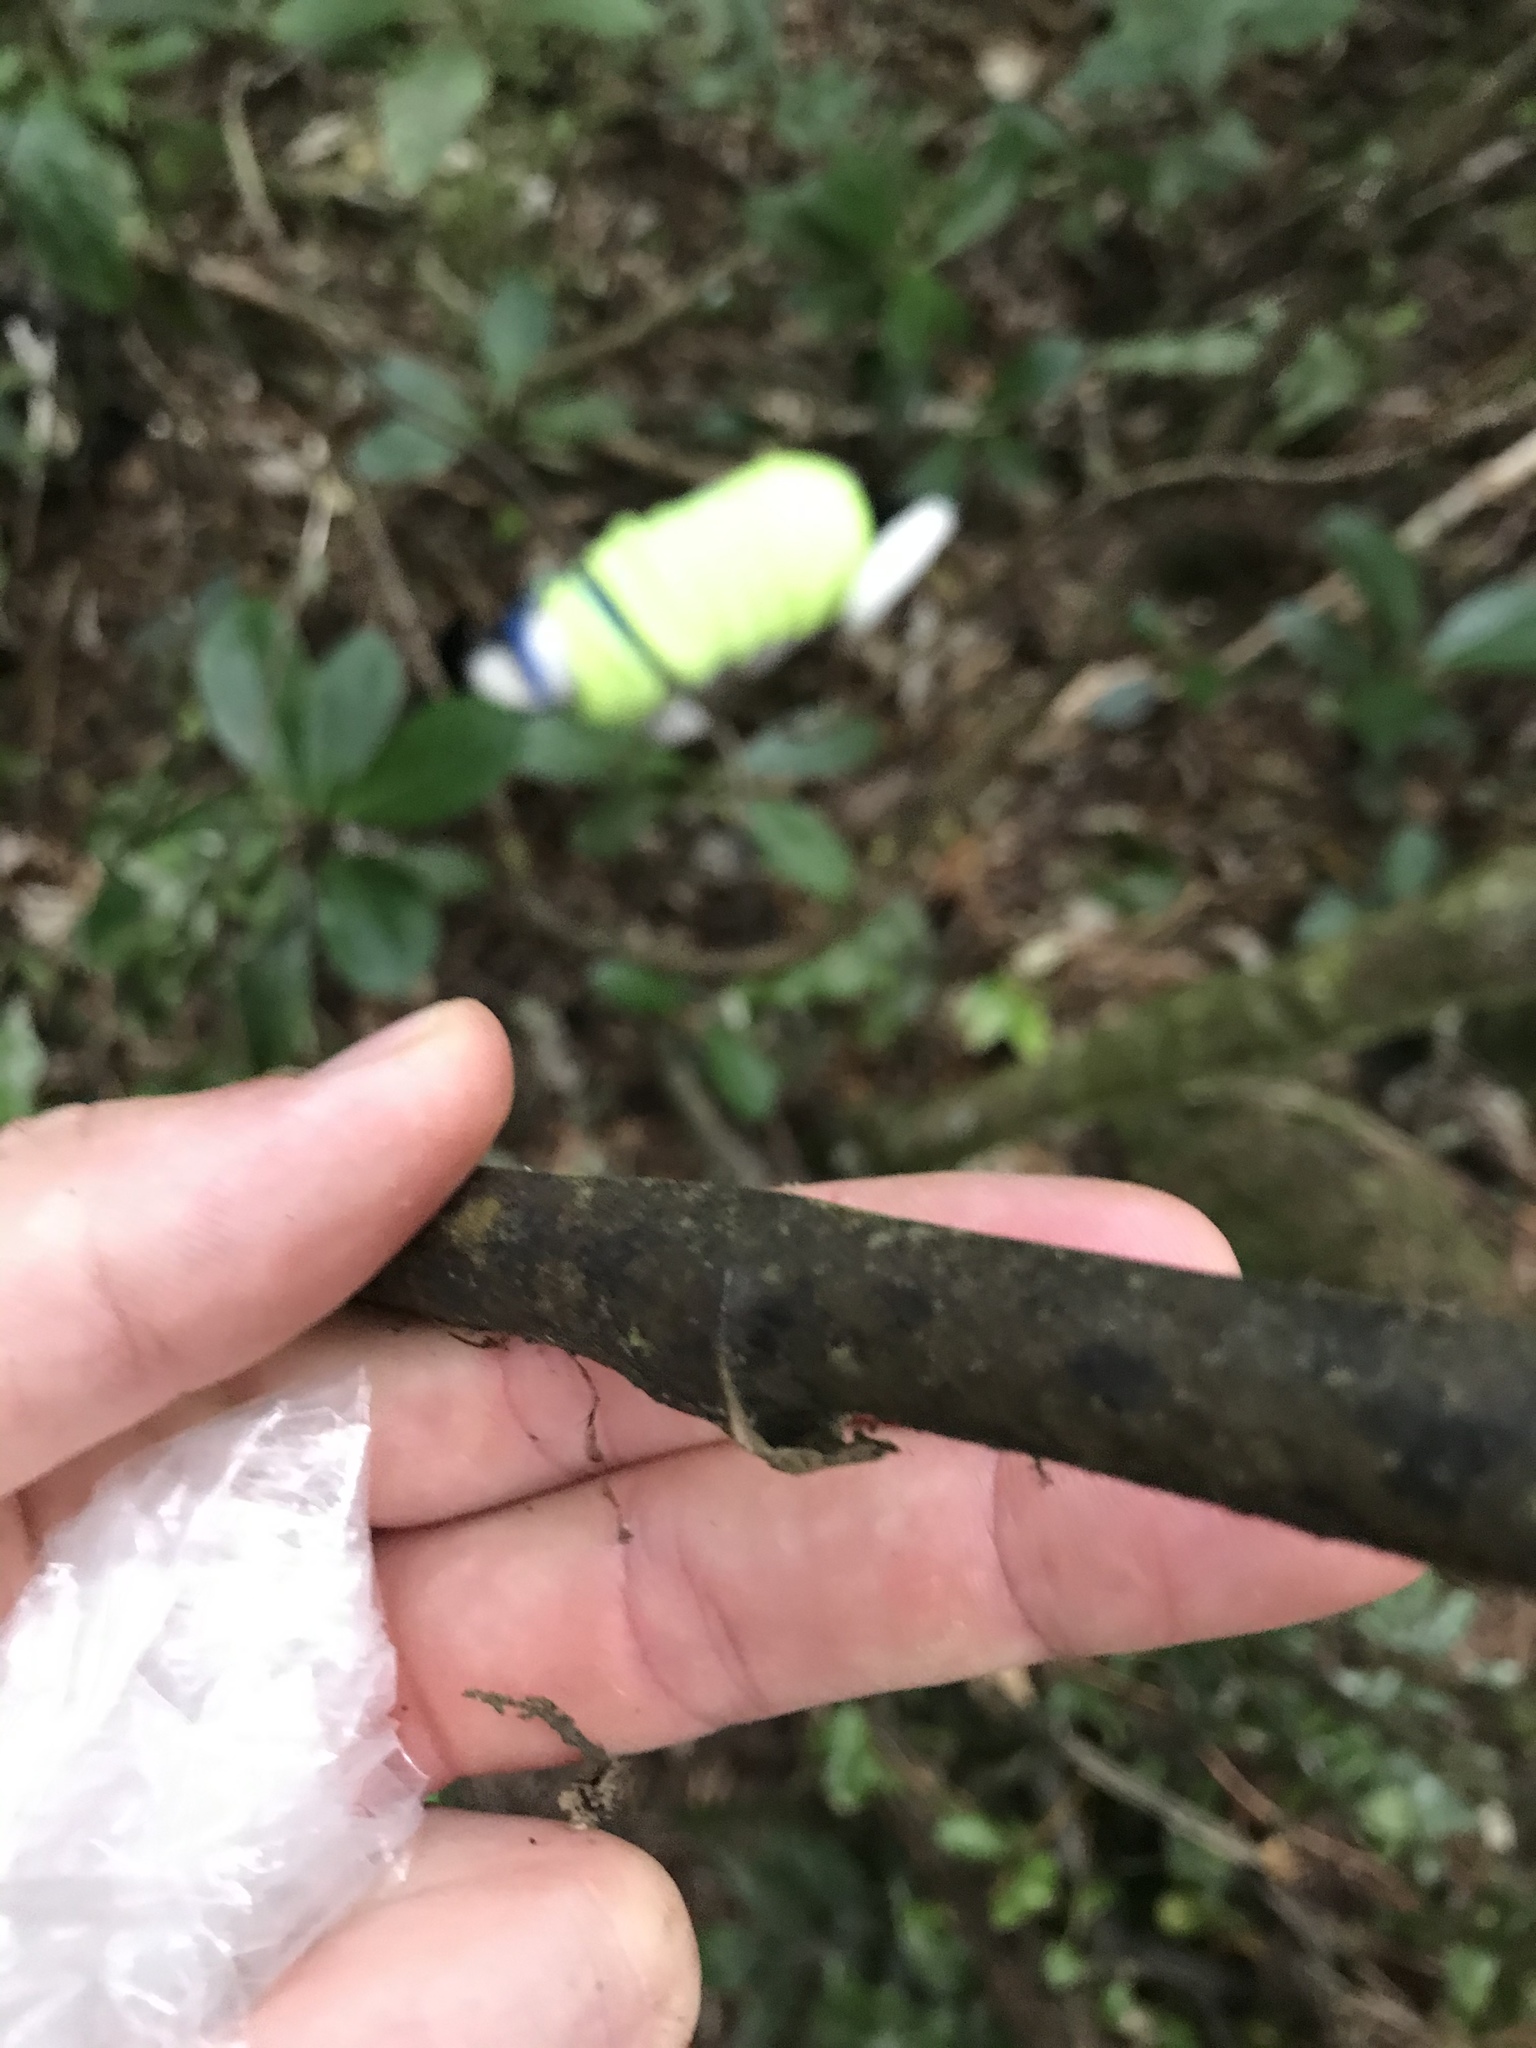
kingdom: Plantae
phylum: Tracheophyta
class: Liliopsida
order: Liliales
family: Ripogonaceae
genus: Ripogonum
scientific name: Ripogonum scandens
